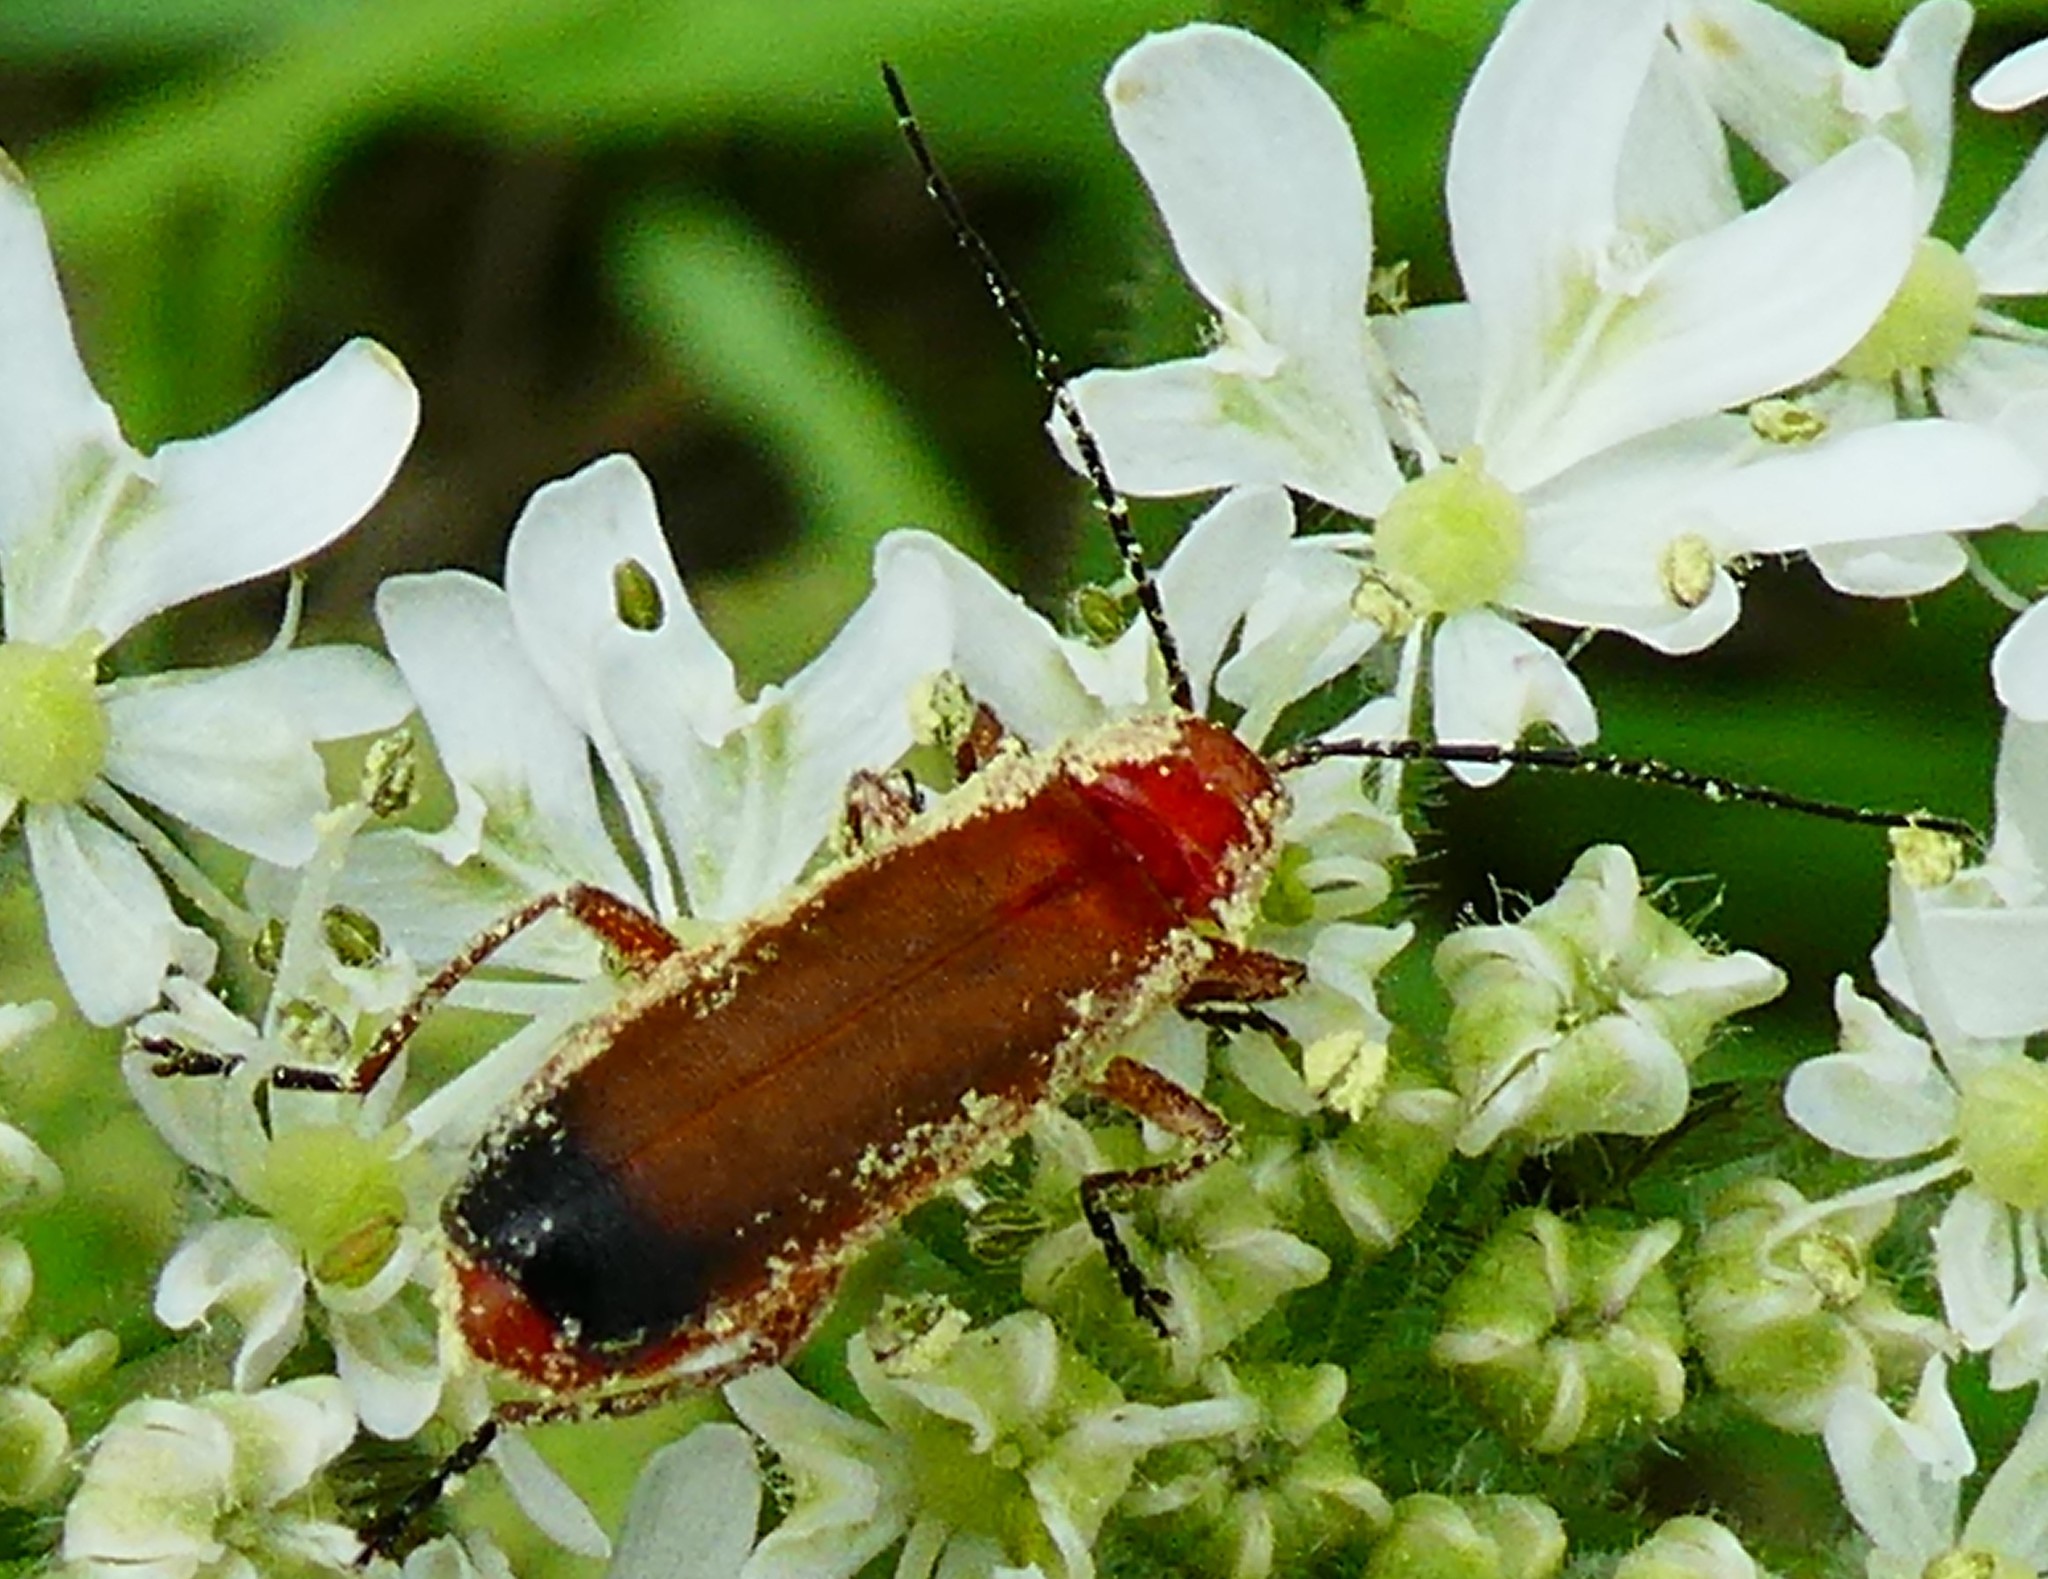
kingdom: Animalia
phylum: Arthropoda
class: Insecta
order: Coleoptera
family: Cantharidae
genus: Rhagonycha
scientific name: Rhagonycha fulva
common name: Common red soldier beetle
